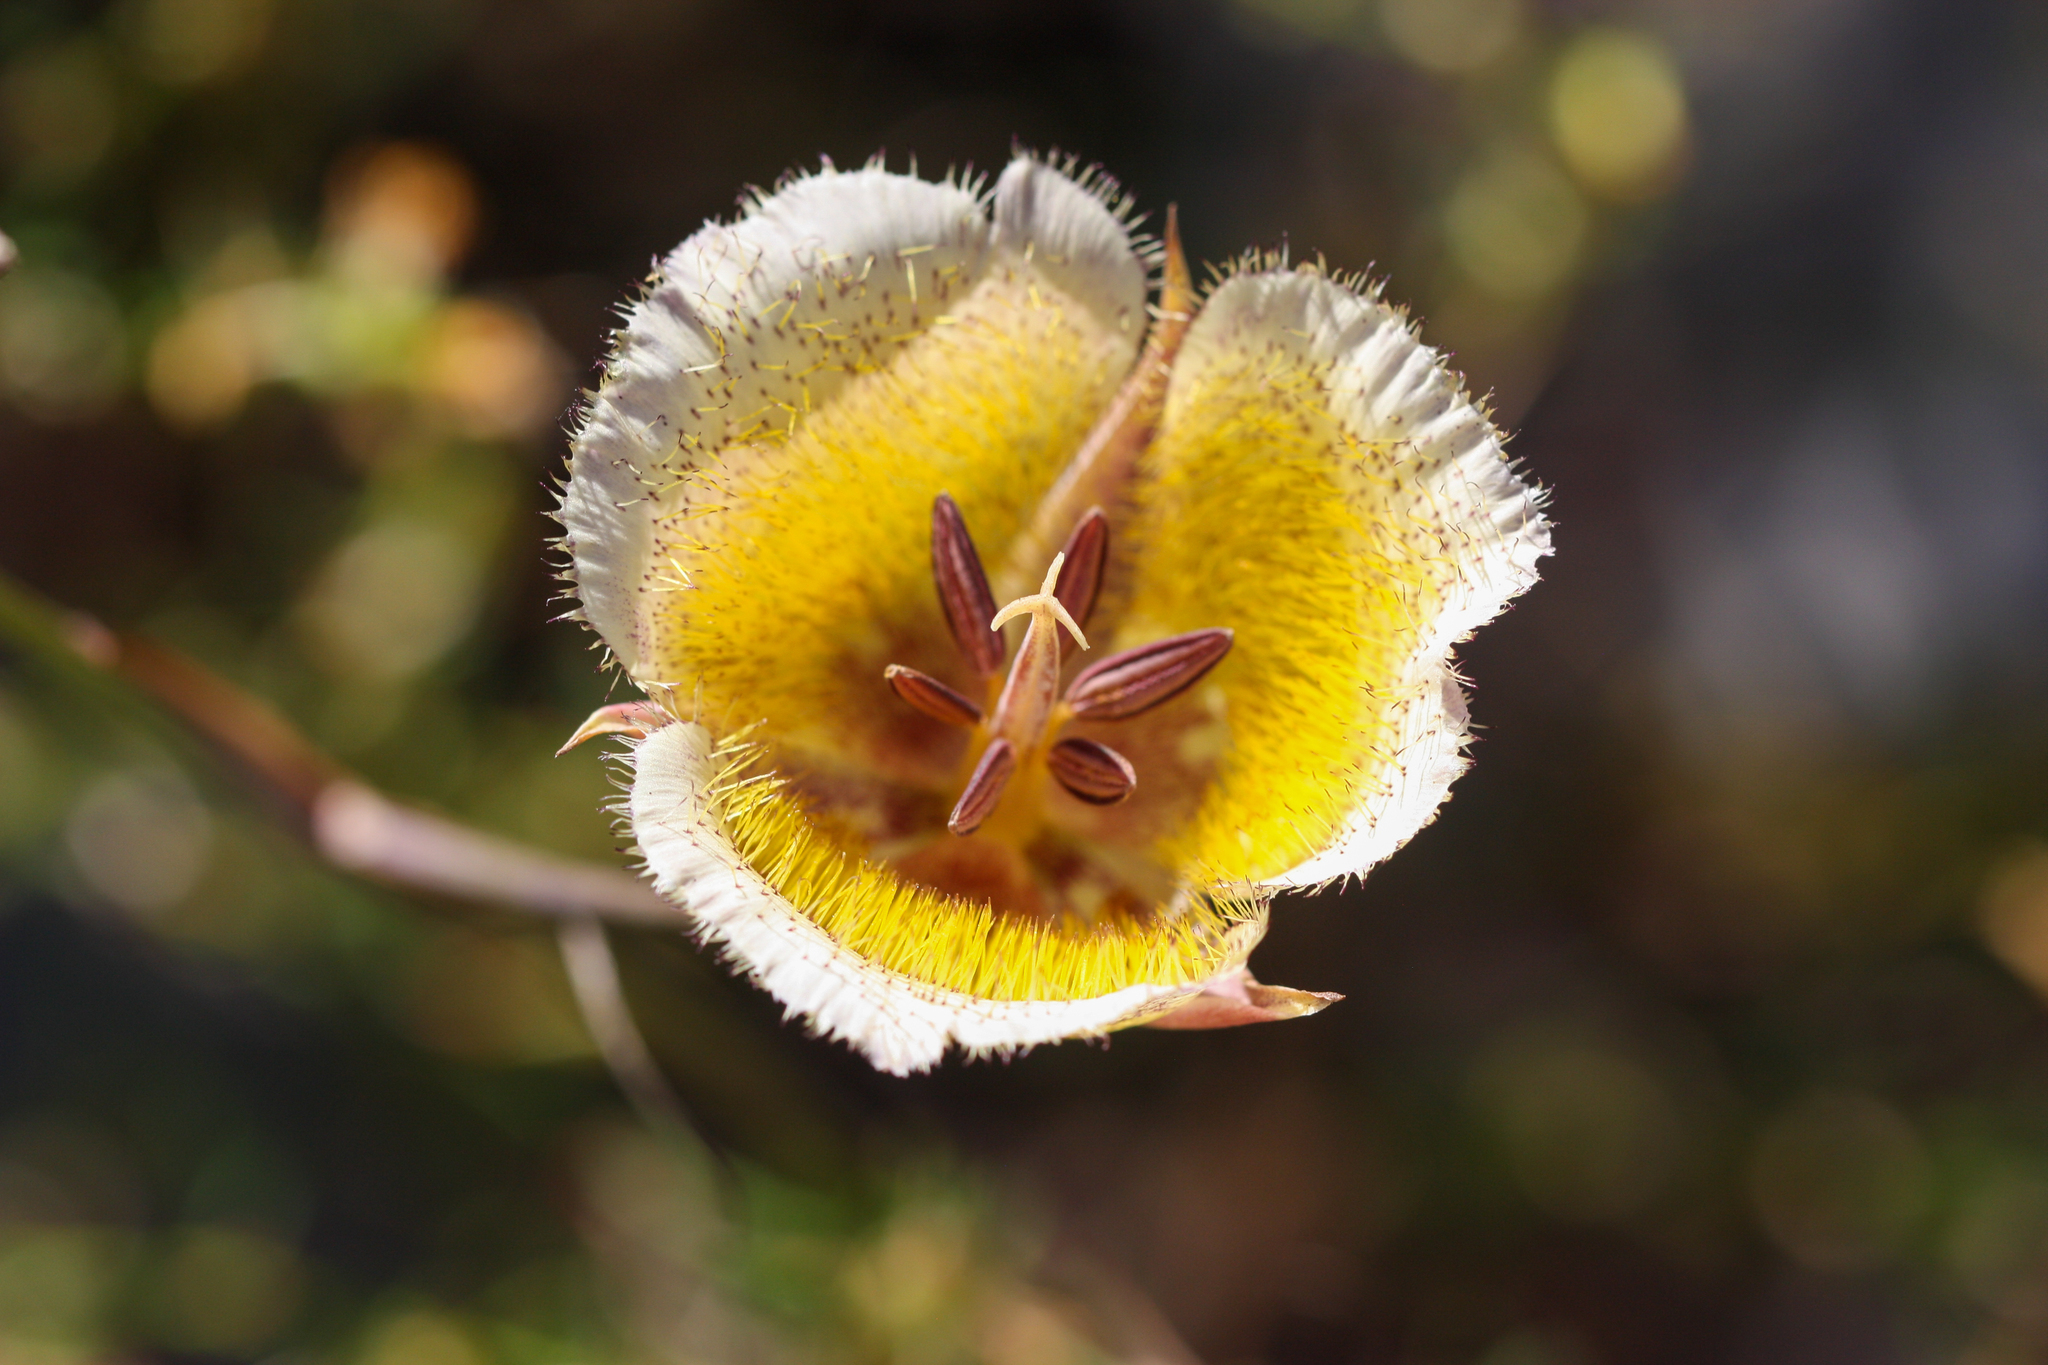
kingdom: Plantae
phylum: Tracheophyta
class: Liliopsida
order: Liliales
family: Liliaceae
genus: Calochortus
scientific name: Calochortus weedii
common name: Weed's mariposa-lily
